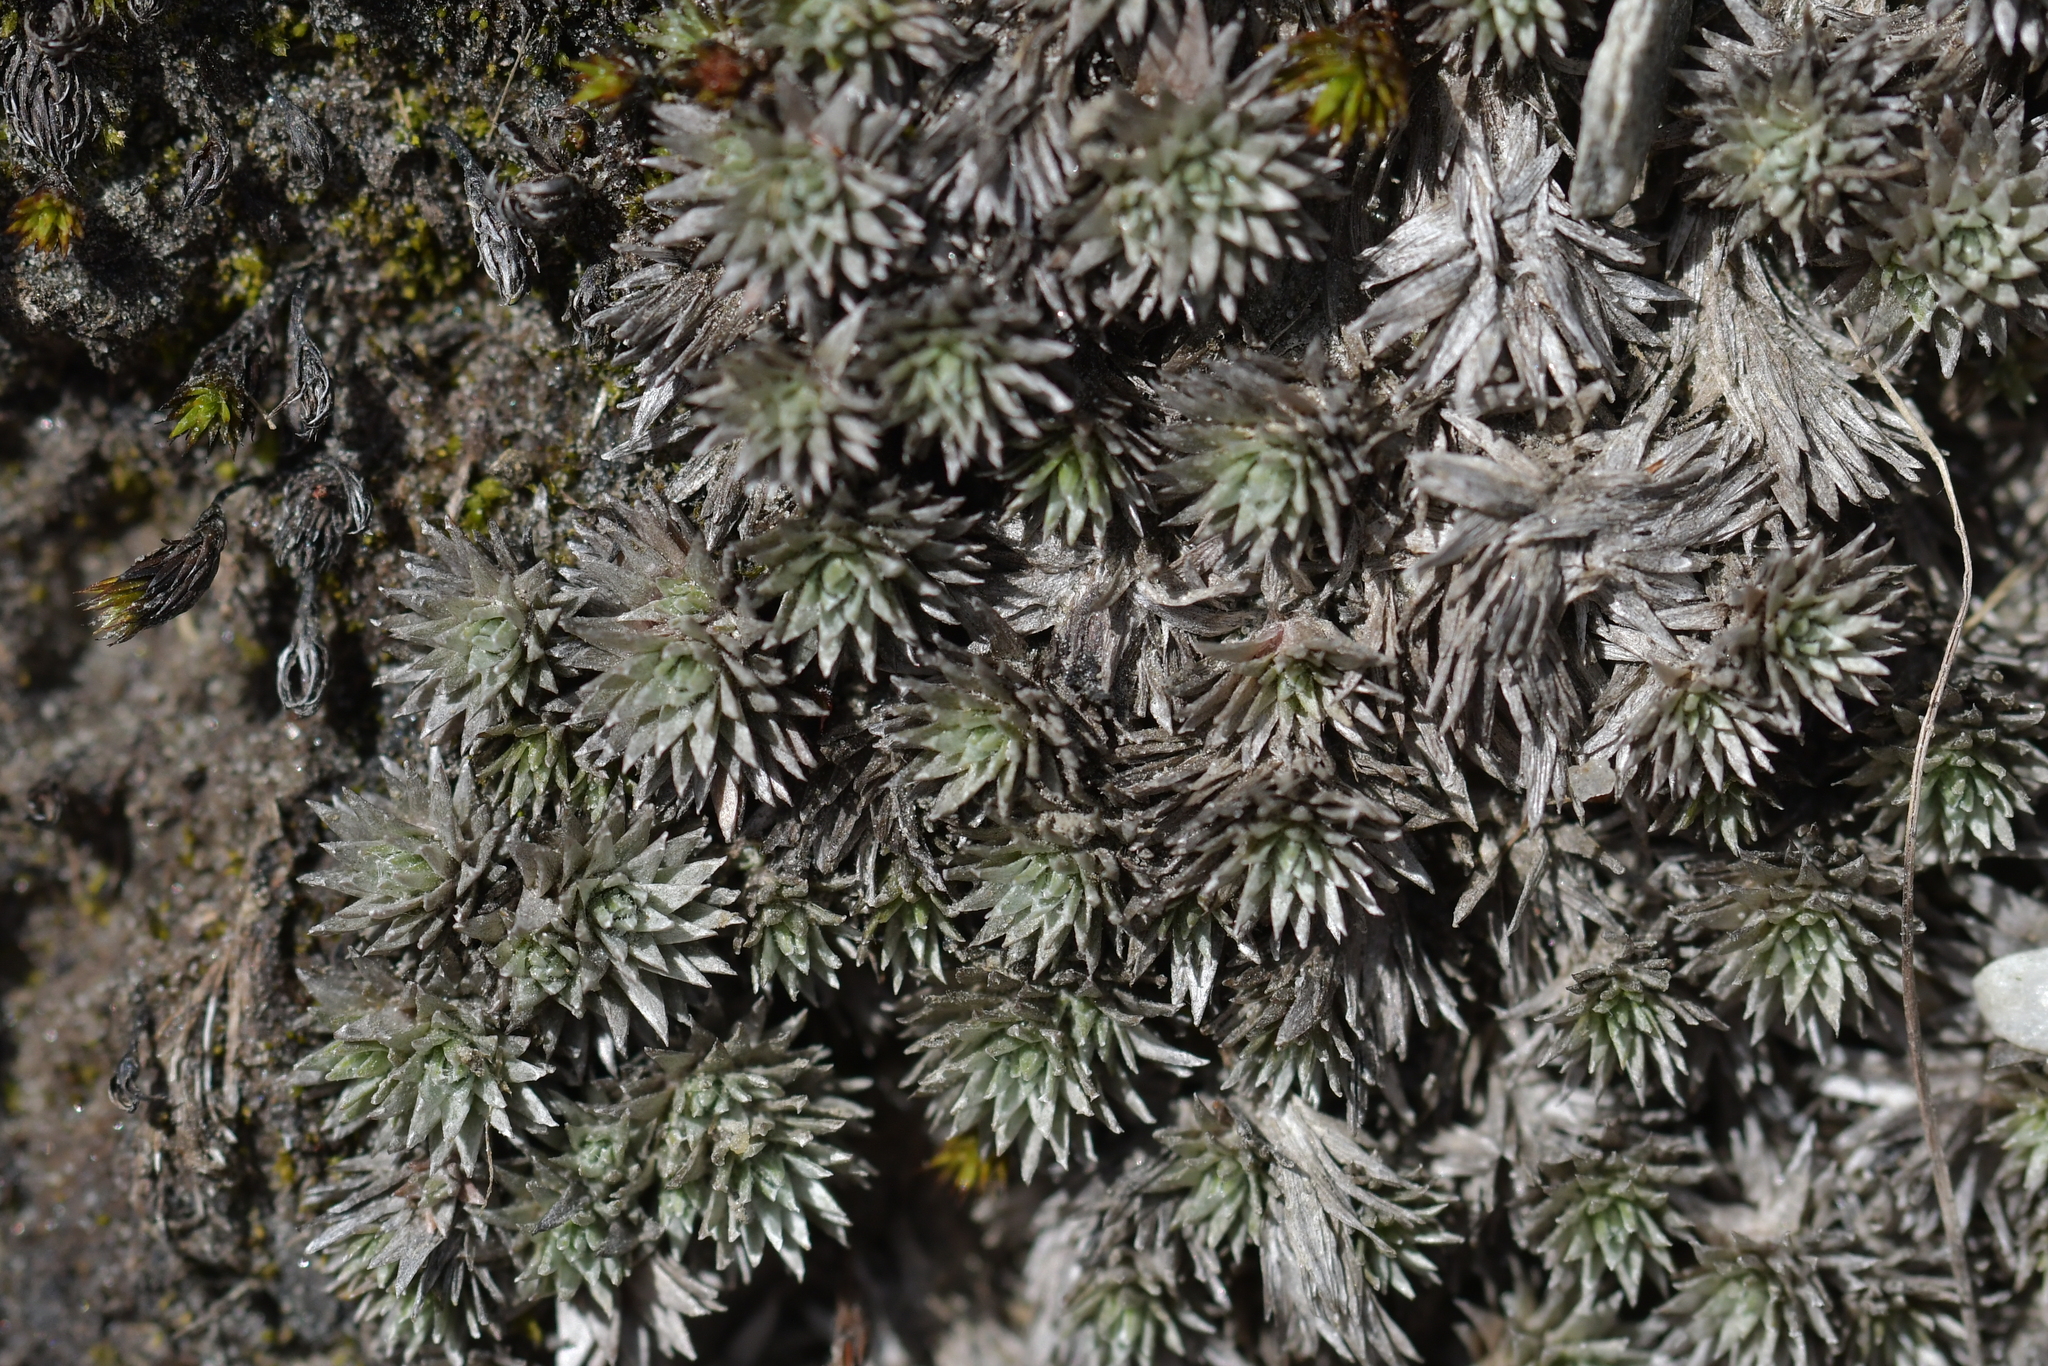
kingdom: Plantae
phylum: Tracheophyta
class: Magnoliopsida
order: Asterales
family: Asteraceae
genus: Raoulia
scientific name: Raoulia grandiflora
